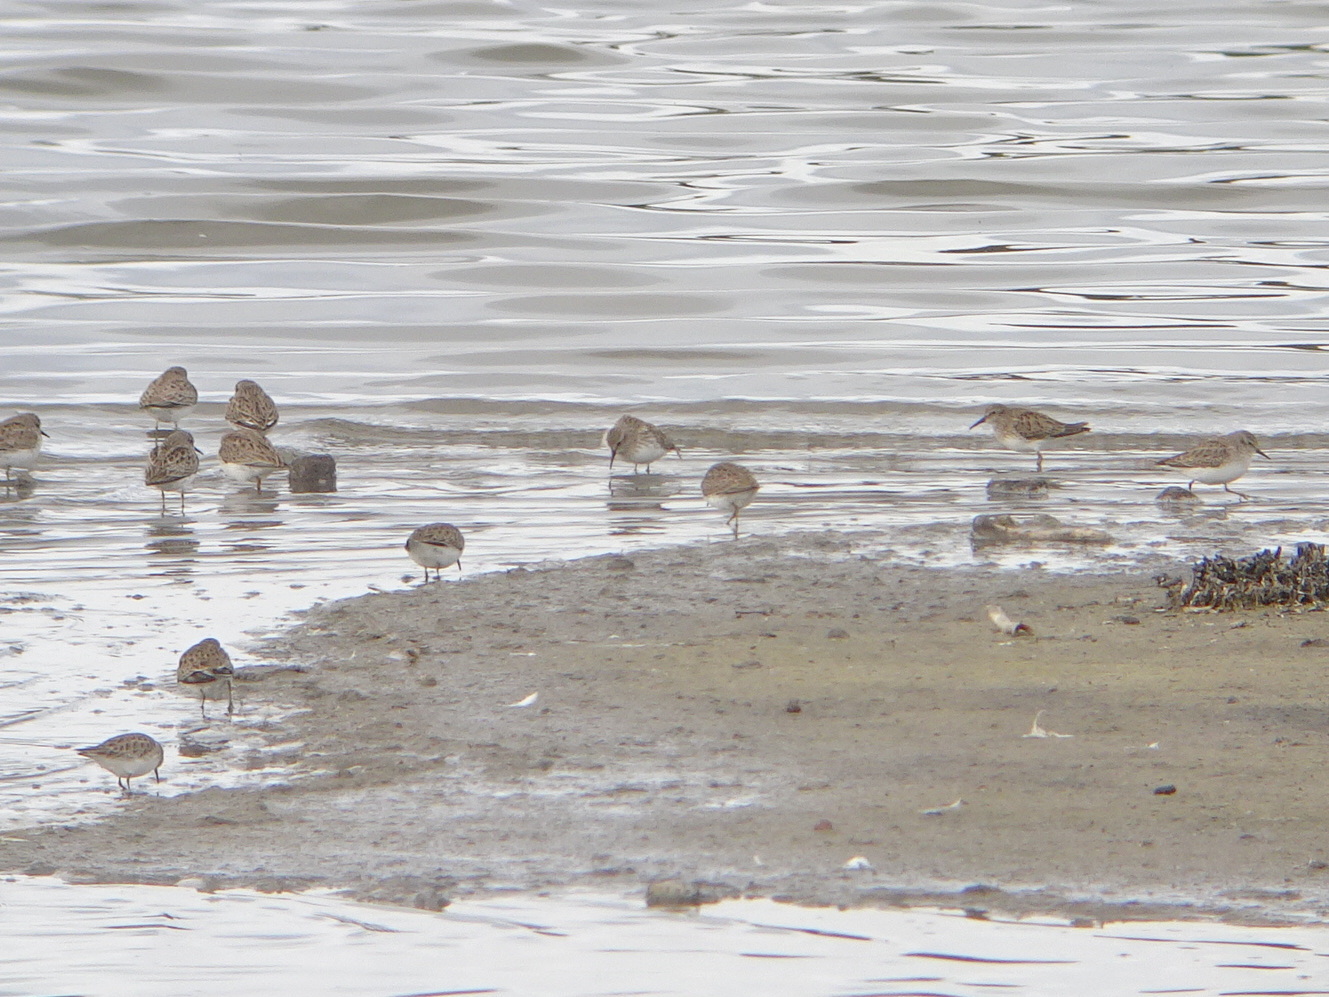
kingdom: Animalia
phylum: Chordata
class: Aves
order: Charadriiformes
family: Scolopacidae
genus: Calidris
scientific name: Calidris minutilla
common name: Least sandpiper
